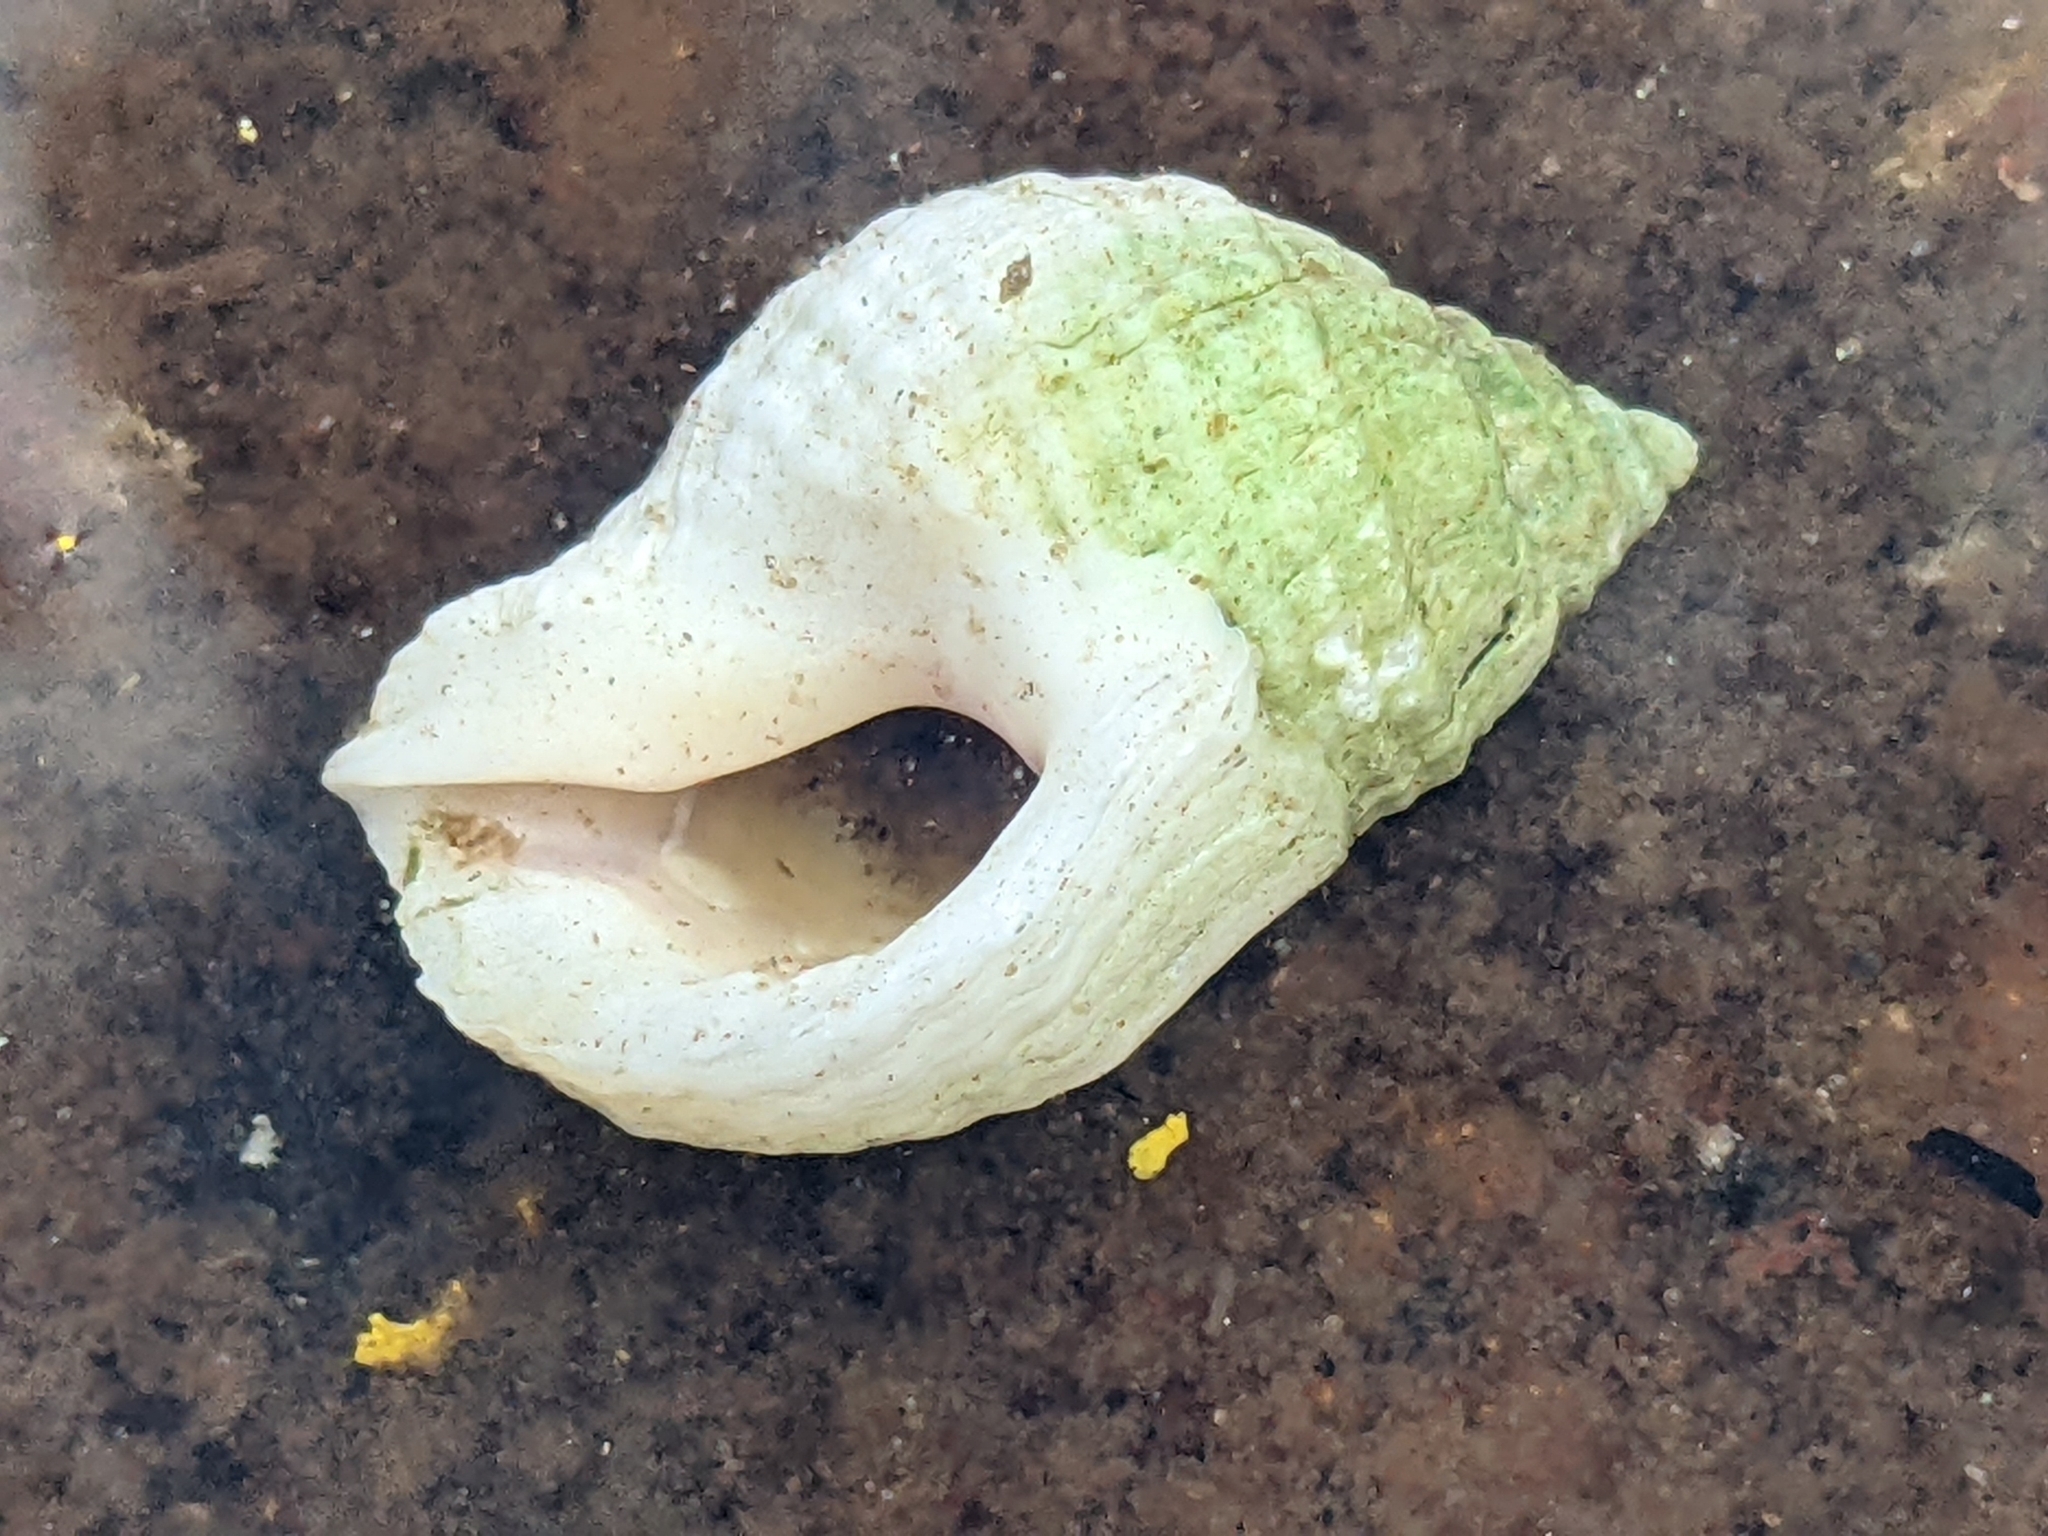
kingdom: Animalia
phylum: Mollusca
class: Gastropoda
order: Neogastropoda
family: Muricidae
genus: Nucella
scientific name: Nucella lapillus
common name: Dog whelk
